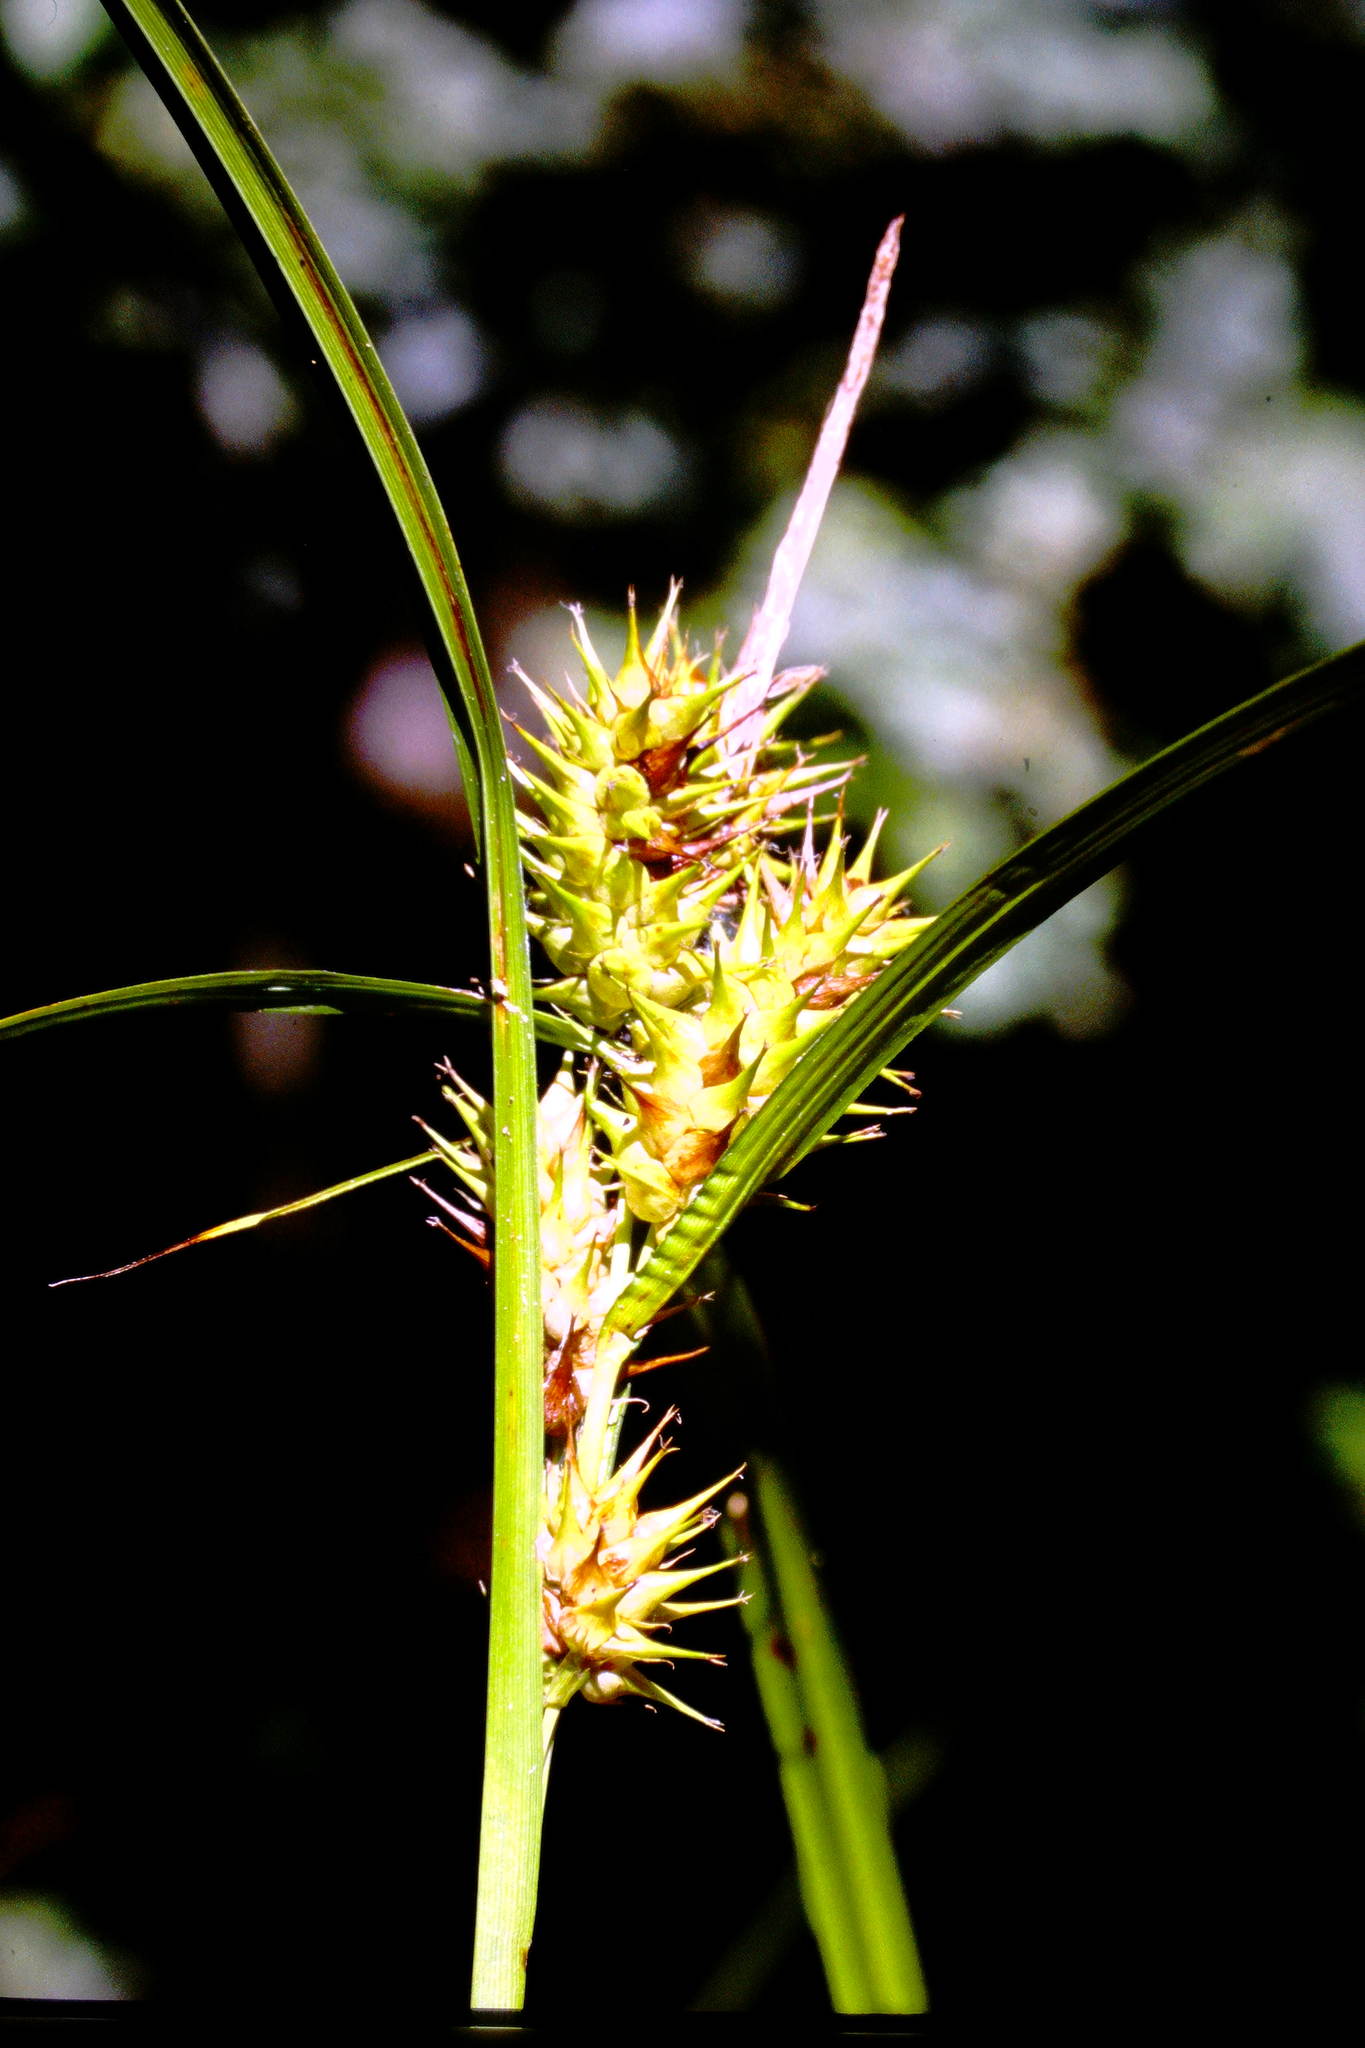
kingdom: Plantae
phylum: Tracheophyta
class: Liliopsida
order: Poales
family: Cyperaceae
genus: Carex
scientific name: Carex lupulina
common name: Hop sedge
